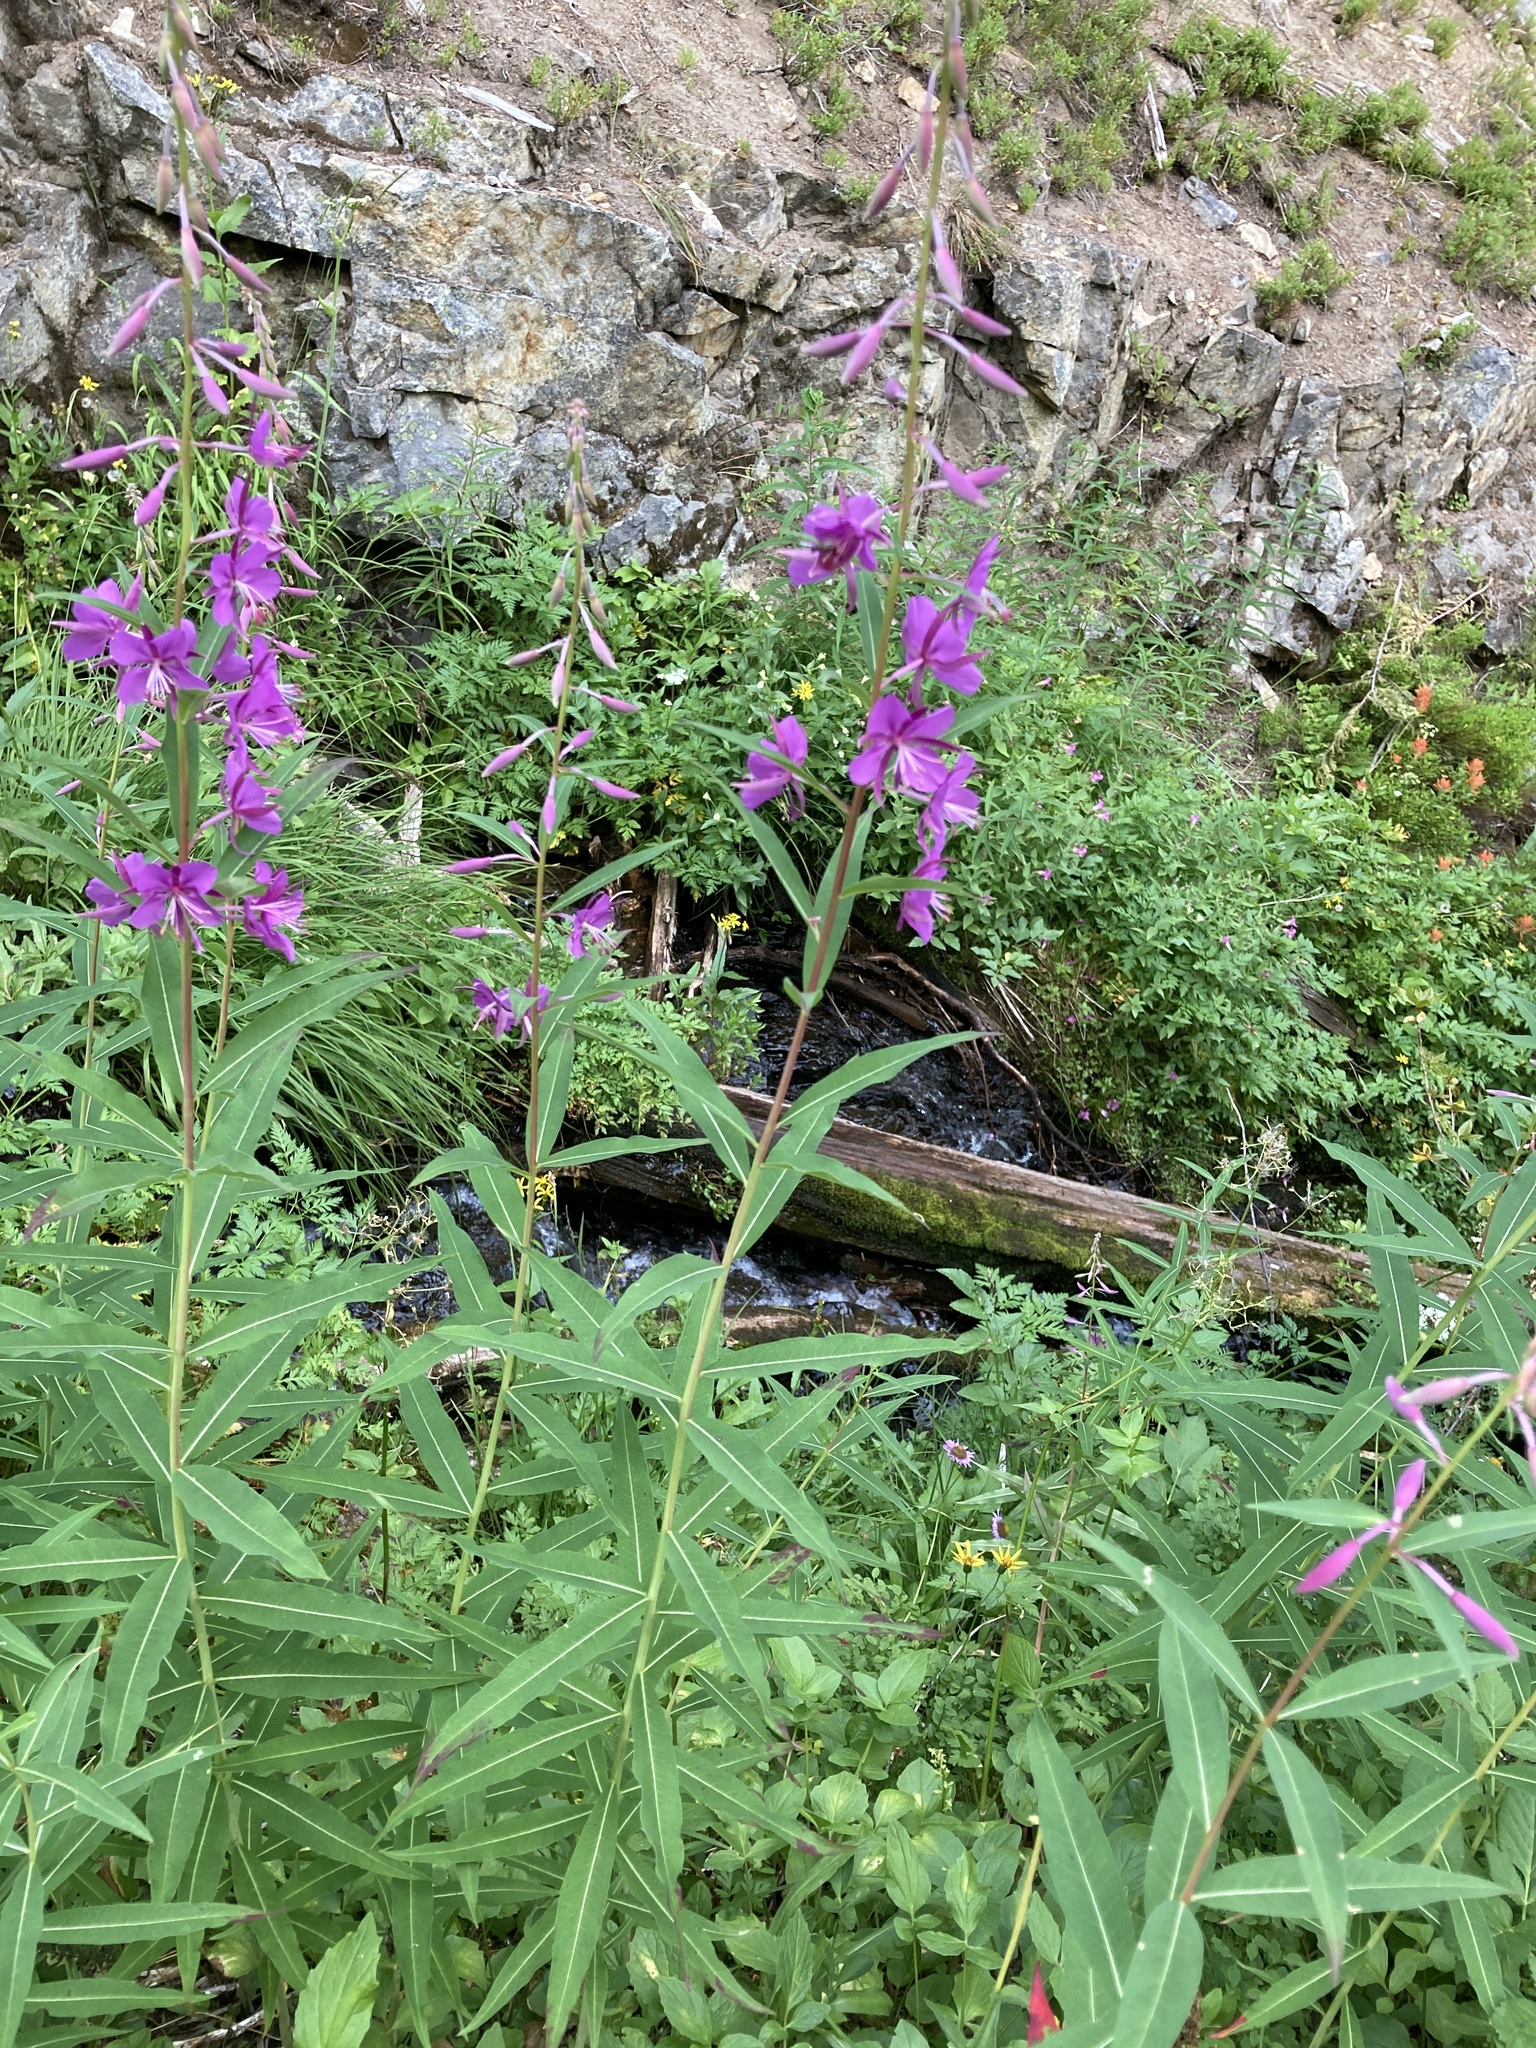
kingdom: Plantae
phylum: Tracheophyta
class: Magnoliopsida
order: Myrtales
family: Onagraceae
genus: Chamaenerion
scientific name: Chamaenerion angustifolium
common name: Fireweed
